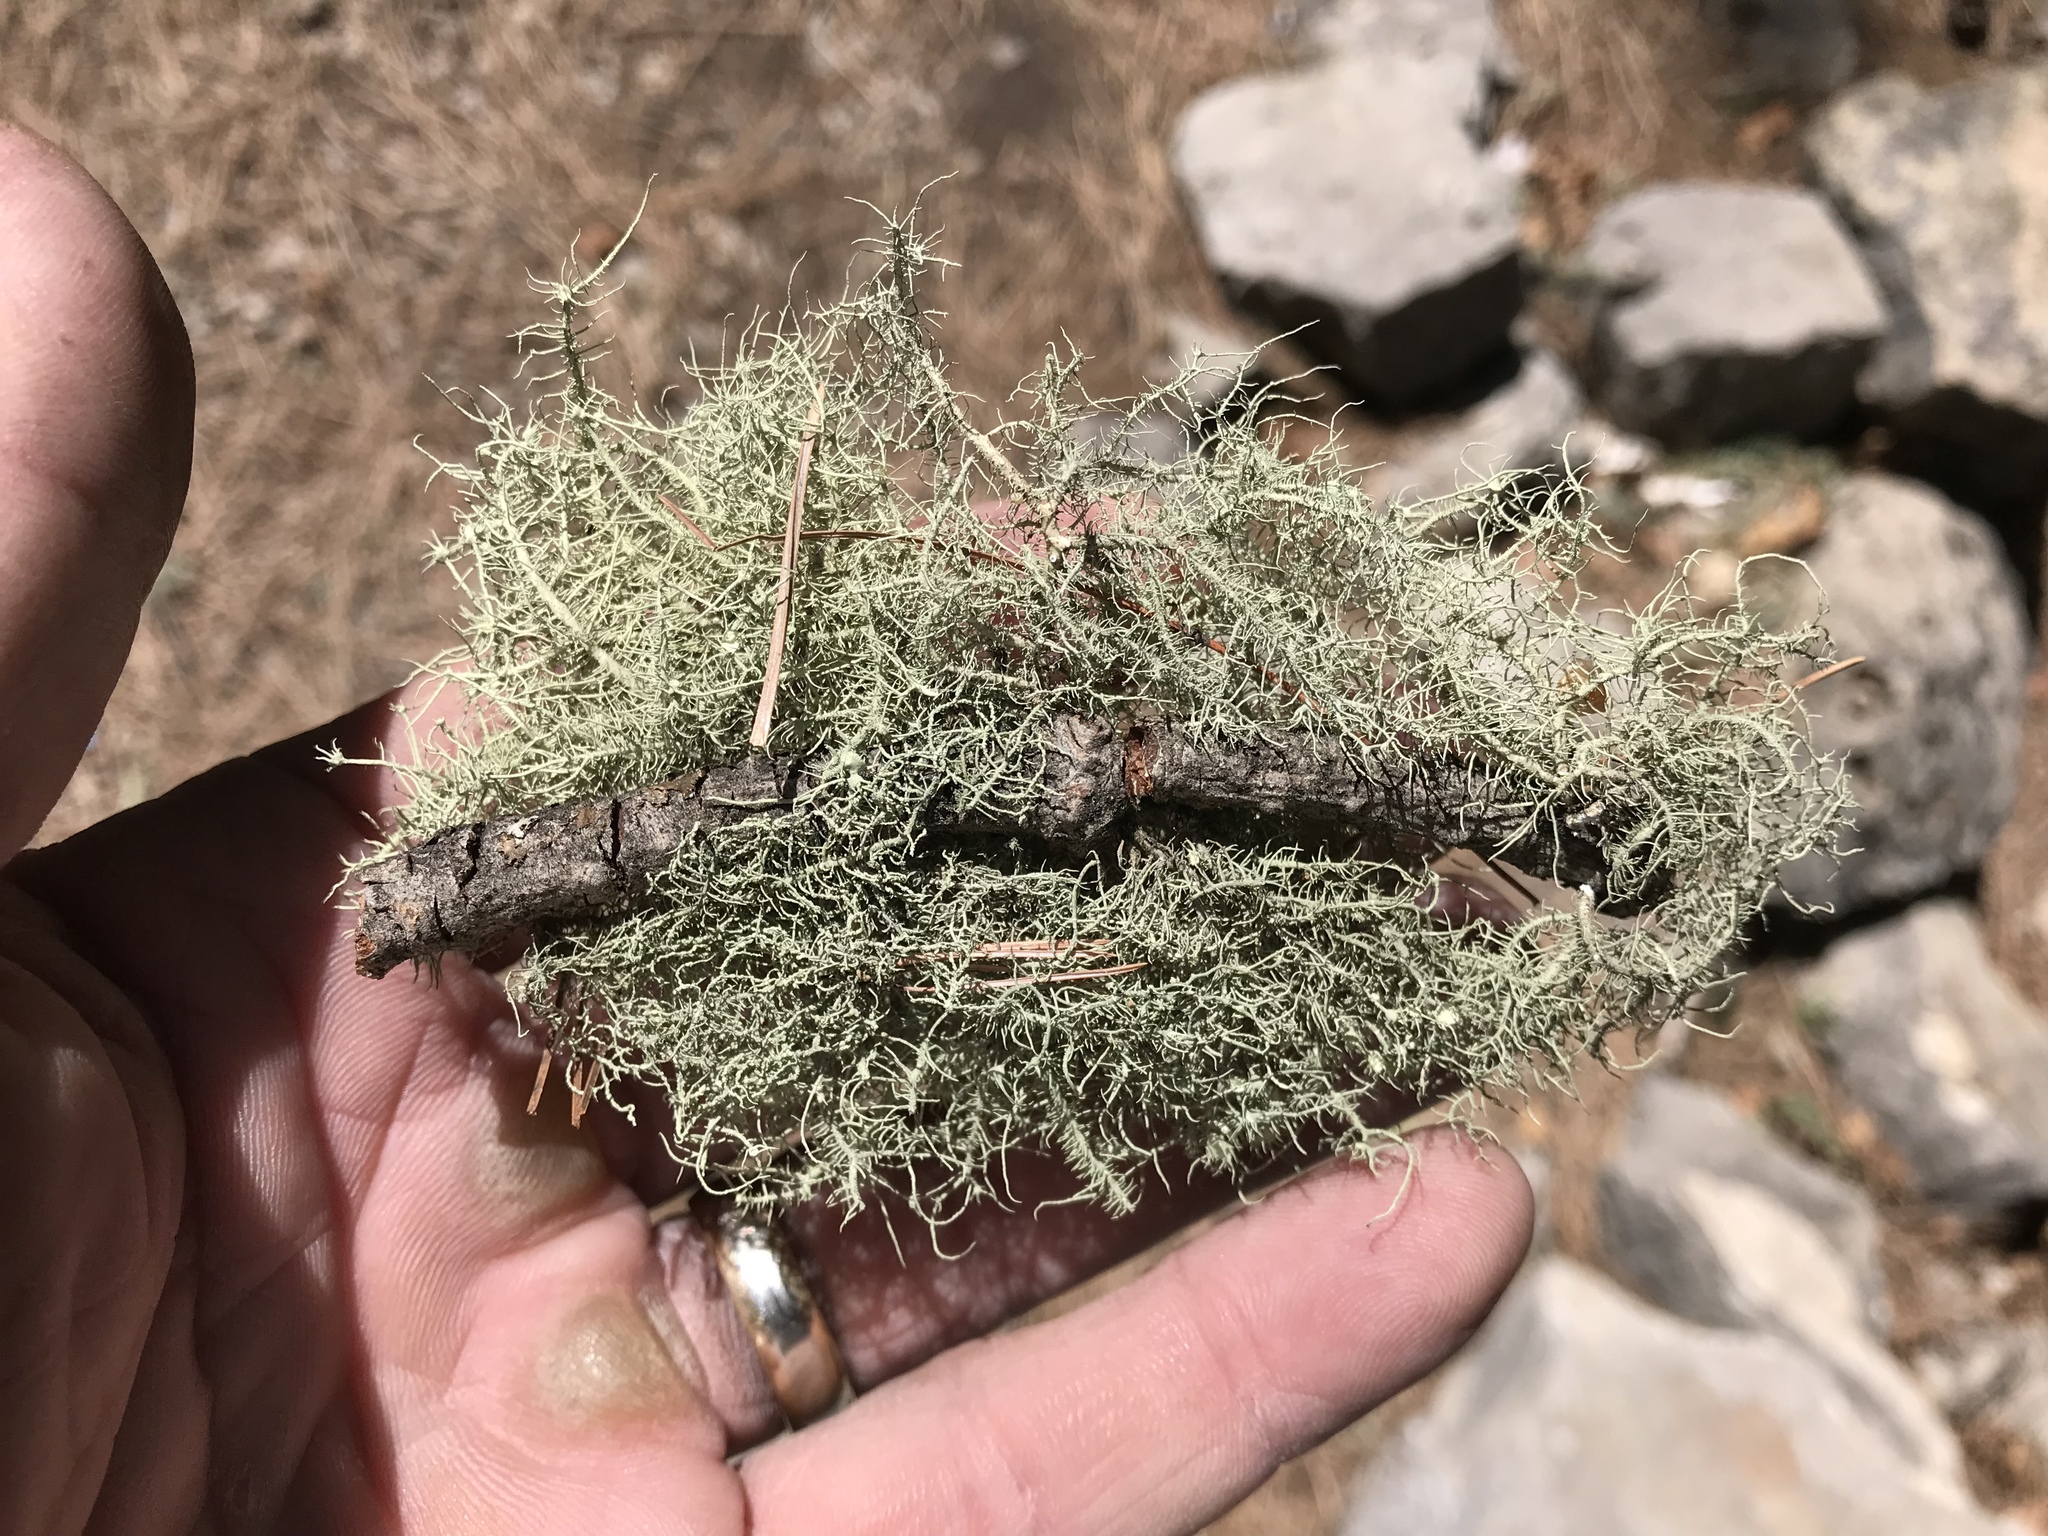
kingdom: Fungi
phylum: Ascomycota
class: Lecanoromycetes
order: Lecanorales
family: Parmeliaceae
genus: Usnea
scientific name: Usnea intermedia
